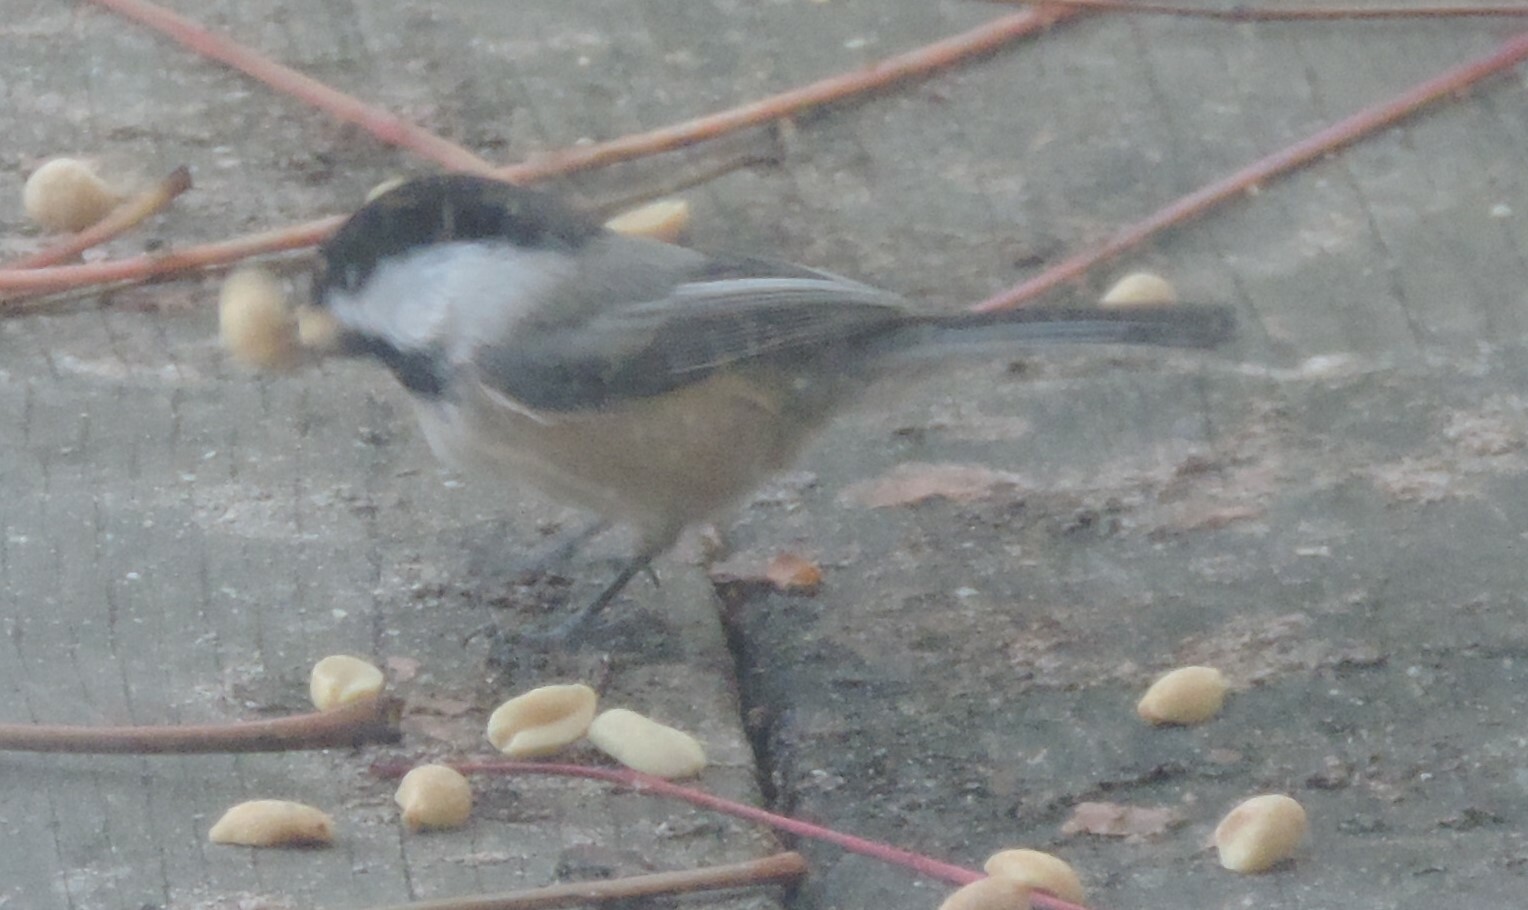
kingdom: Animalia
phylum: Chordata
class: Aves
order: Passeriformes
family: Paridae
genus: Poecile
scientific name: Poecile atricapillus
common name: Black-capped chickadee
